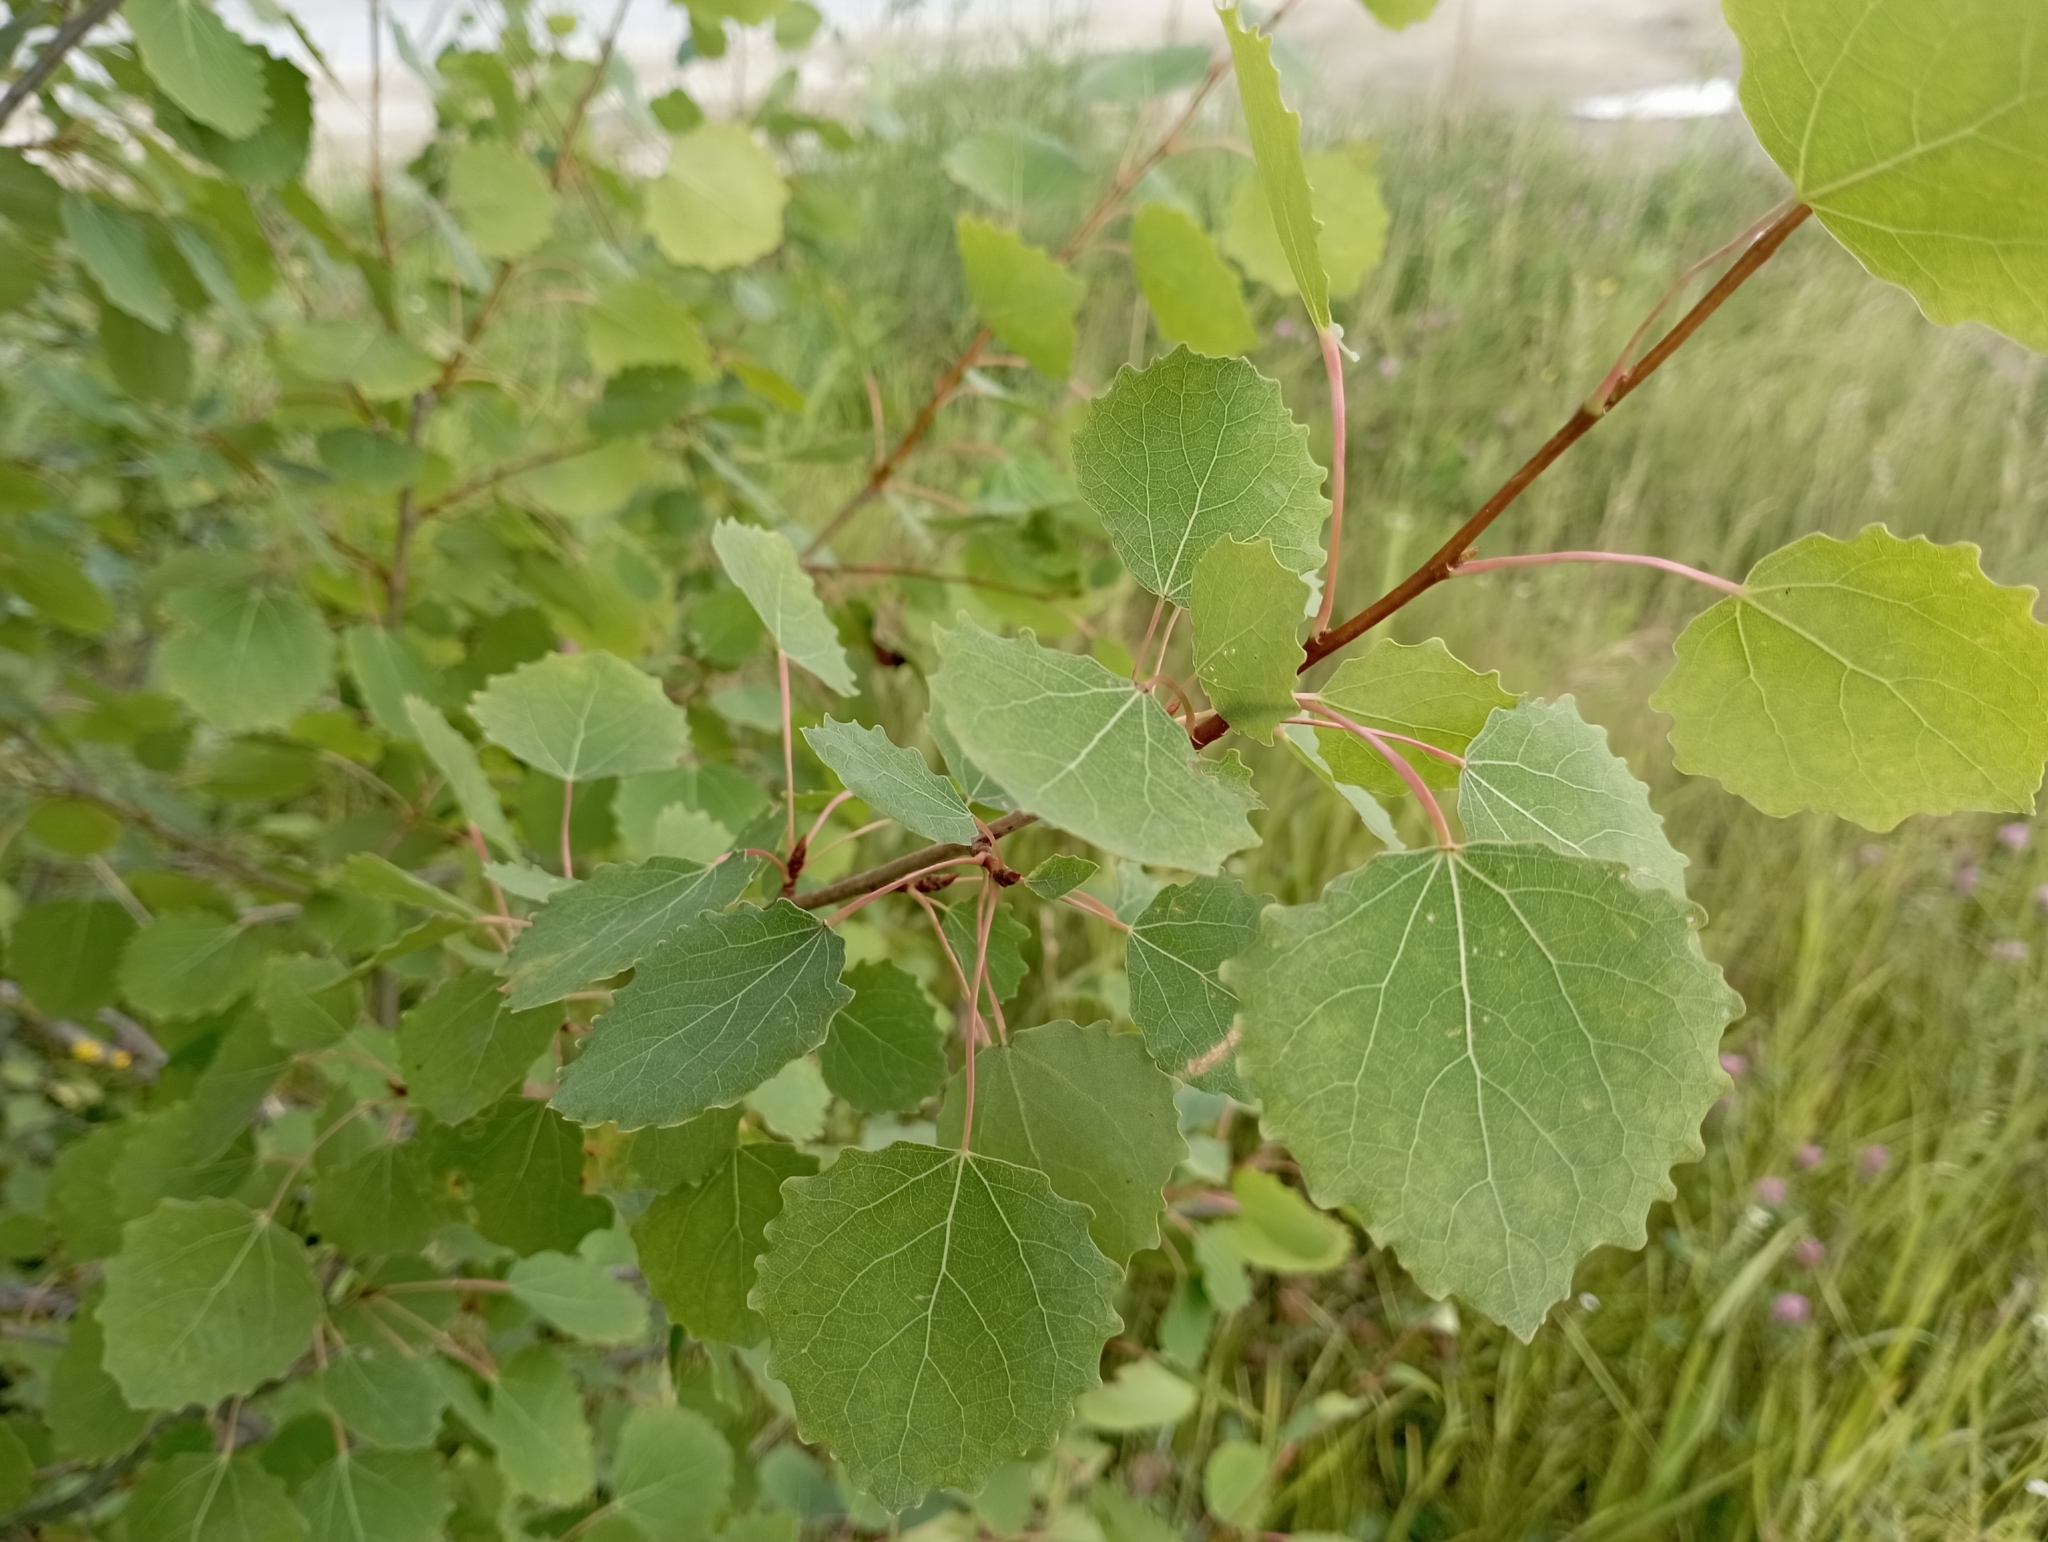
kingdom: Plantae
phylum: Tracheophyta
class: Magnoliopsida
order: Malpighiales
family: Salicaceae
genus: Populus
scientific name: Populus tremula
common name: European aspen
